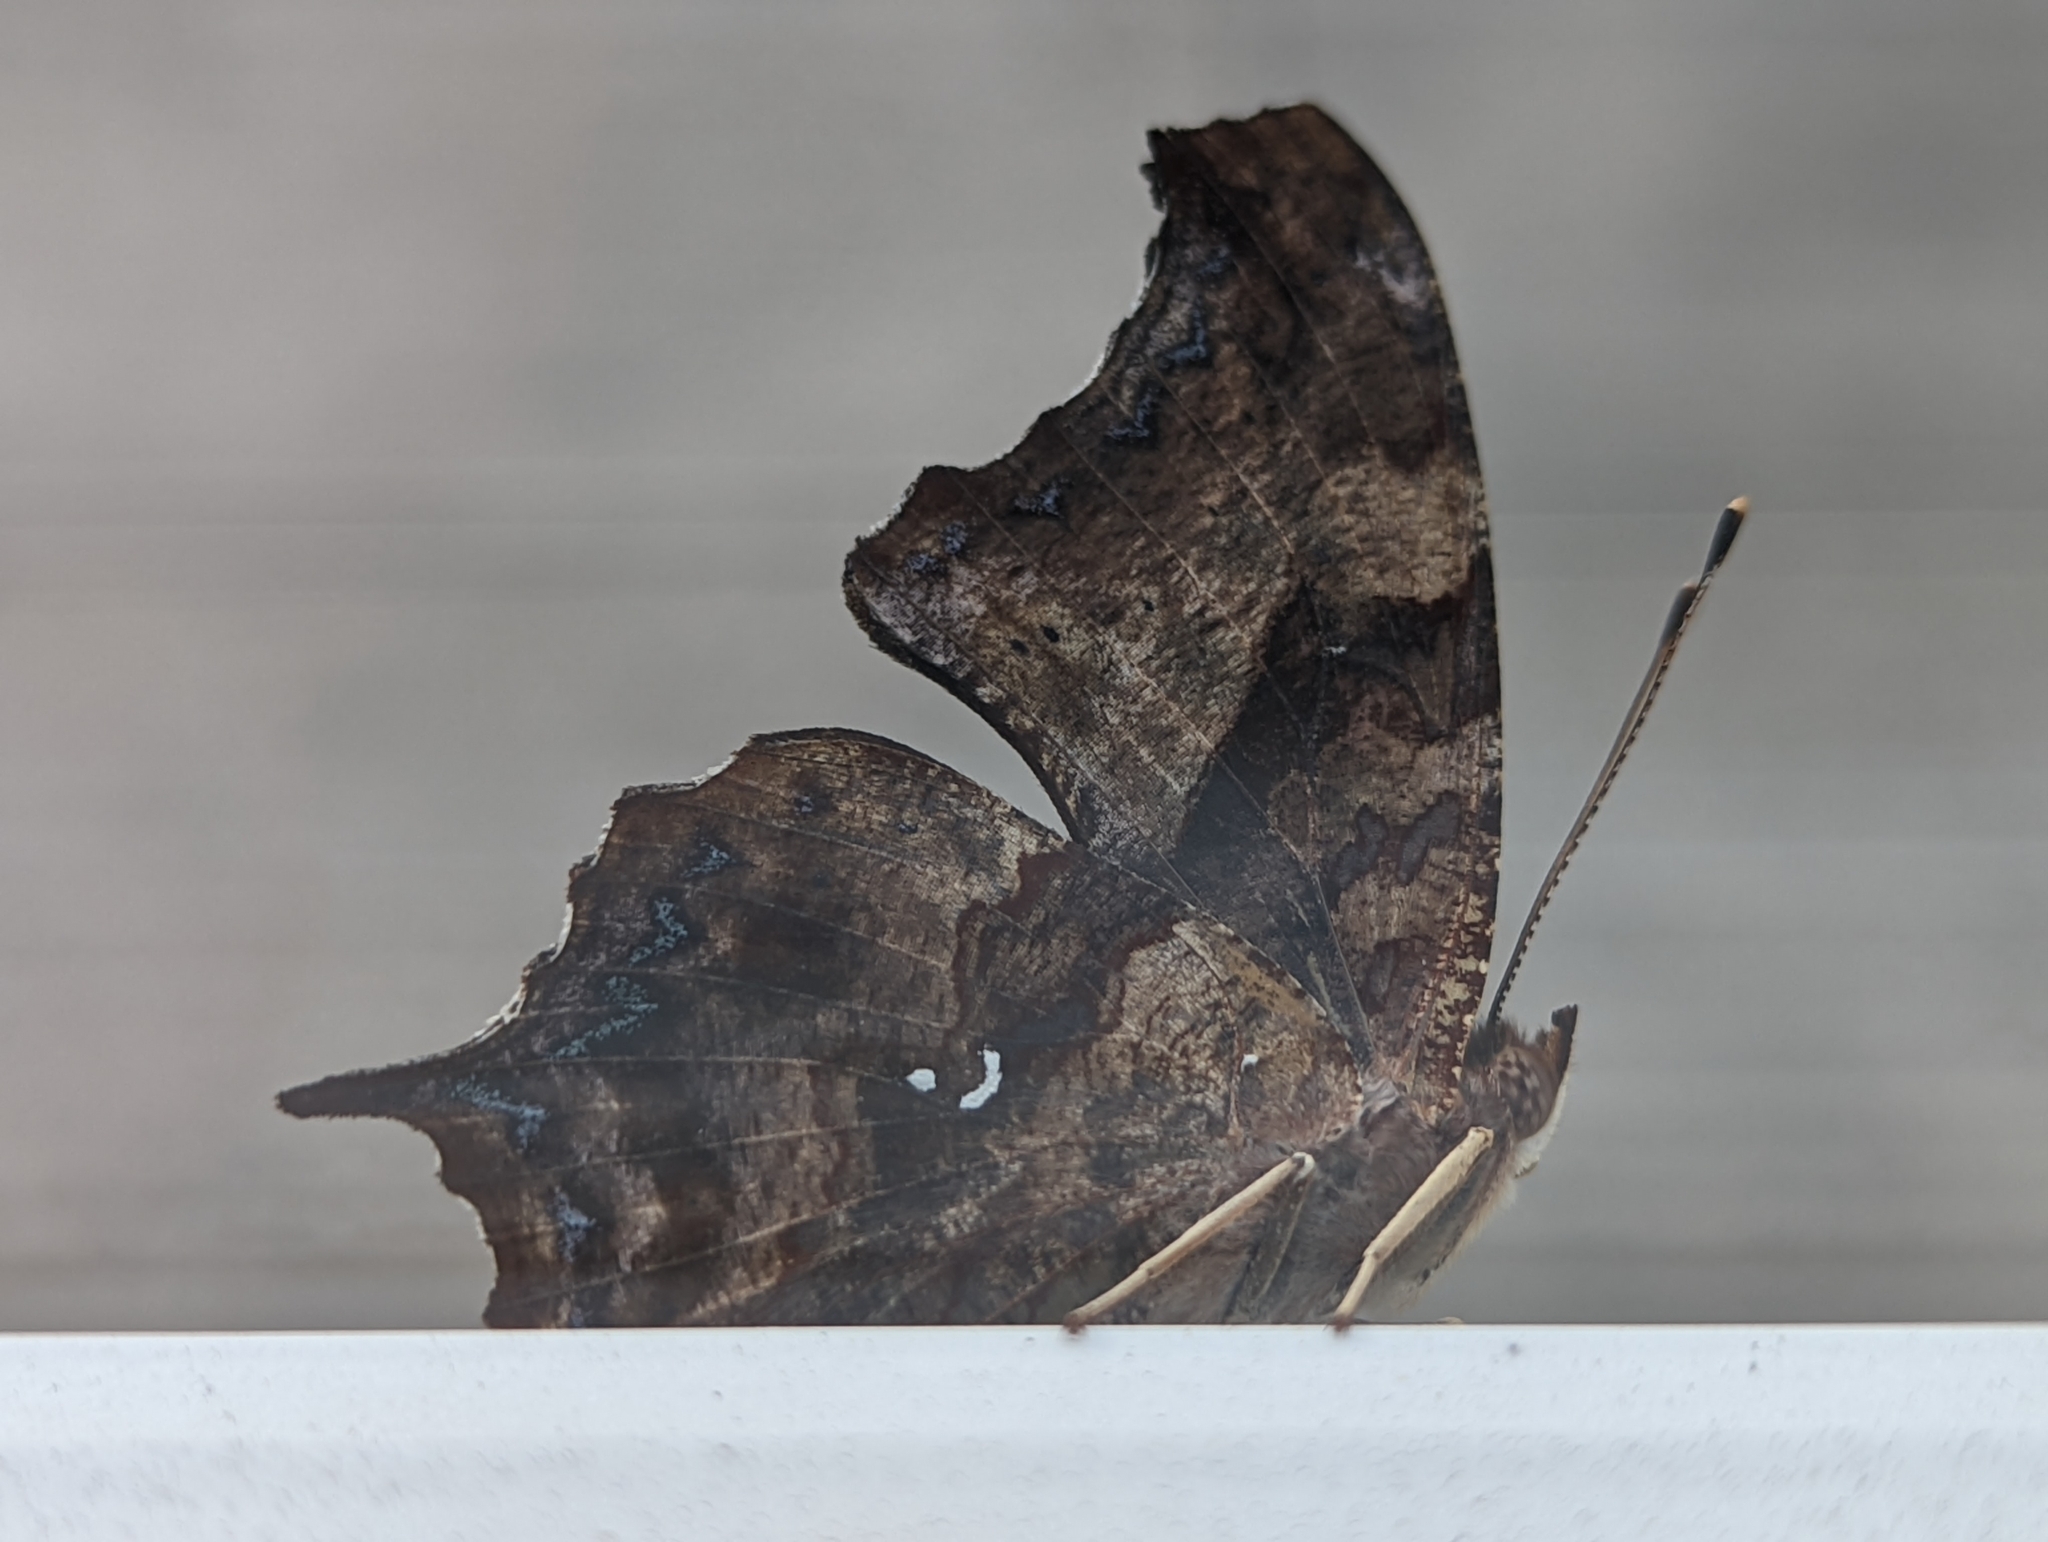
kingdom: Animalia
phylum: Arthropoda
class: Insecta
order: Lepidoptera
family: Nymphalidae
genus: Polygonia
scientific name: Polygonia interrogationis
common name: Question mark
